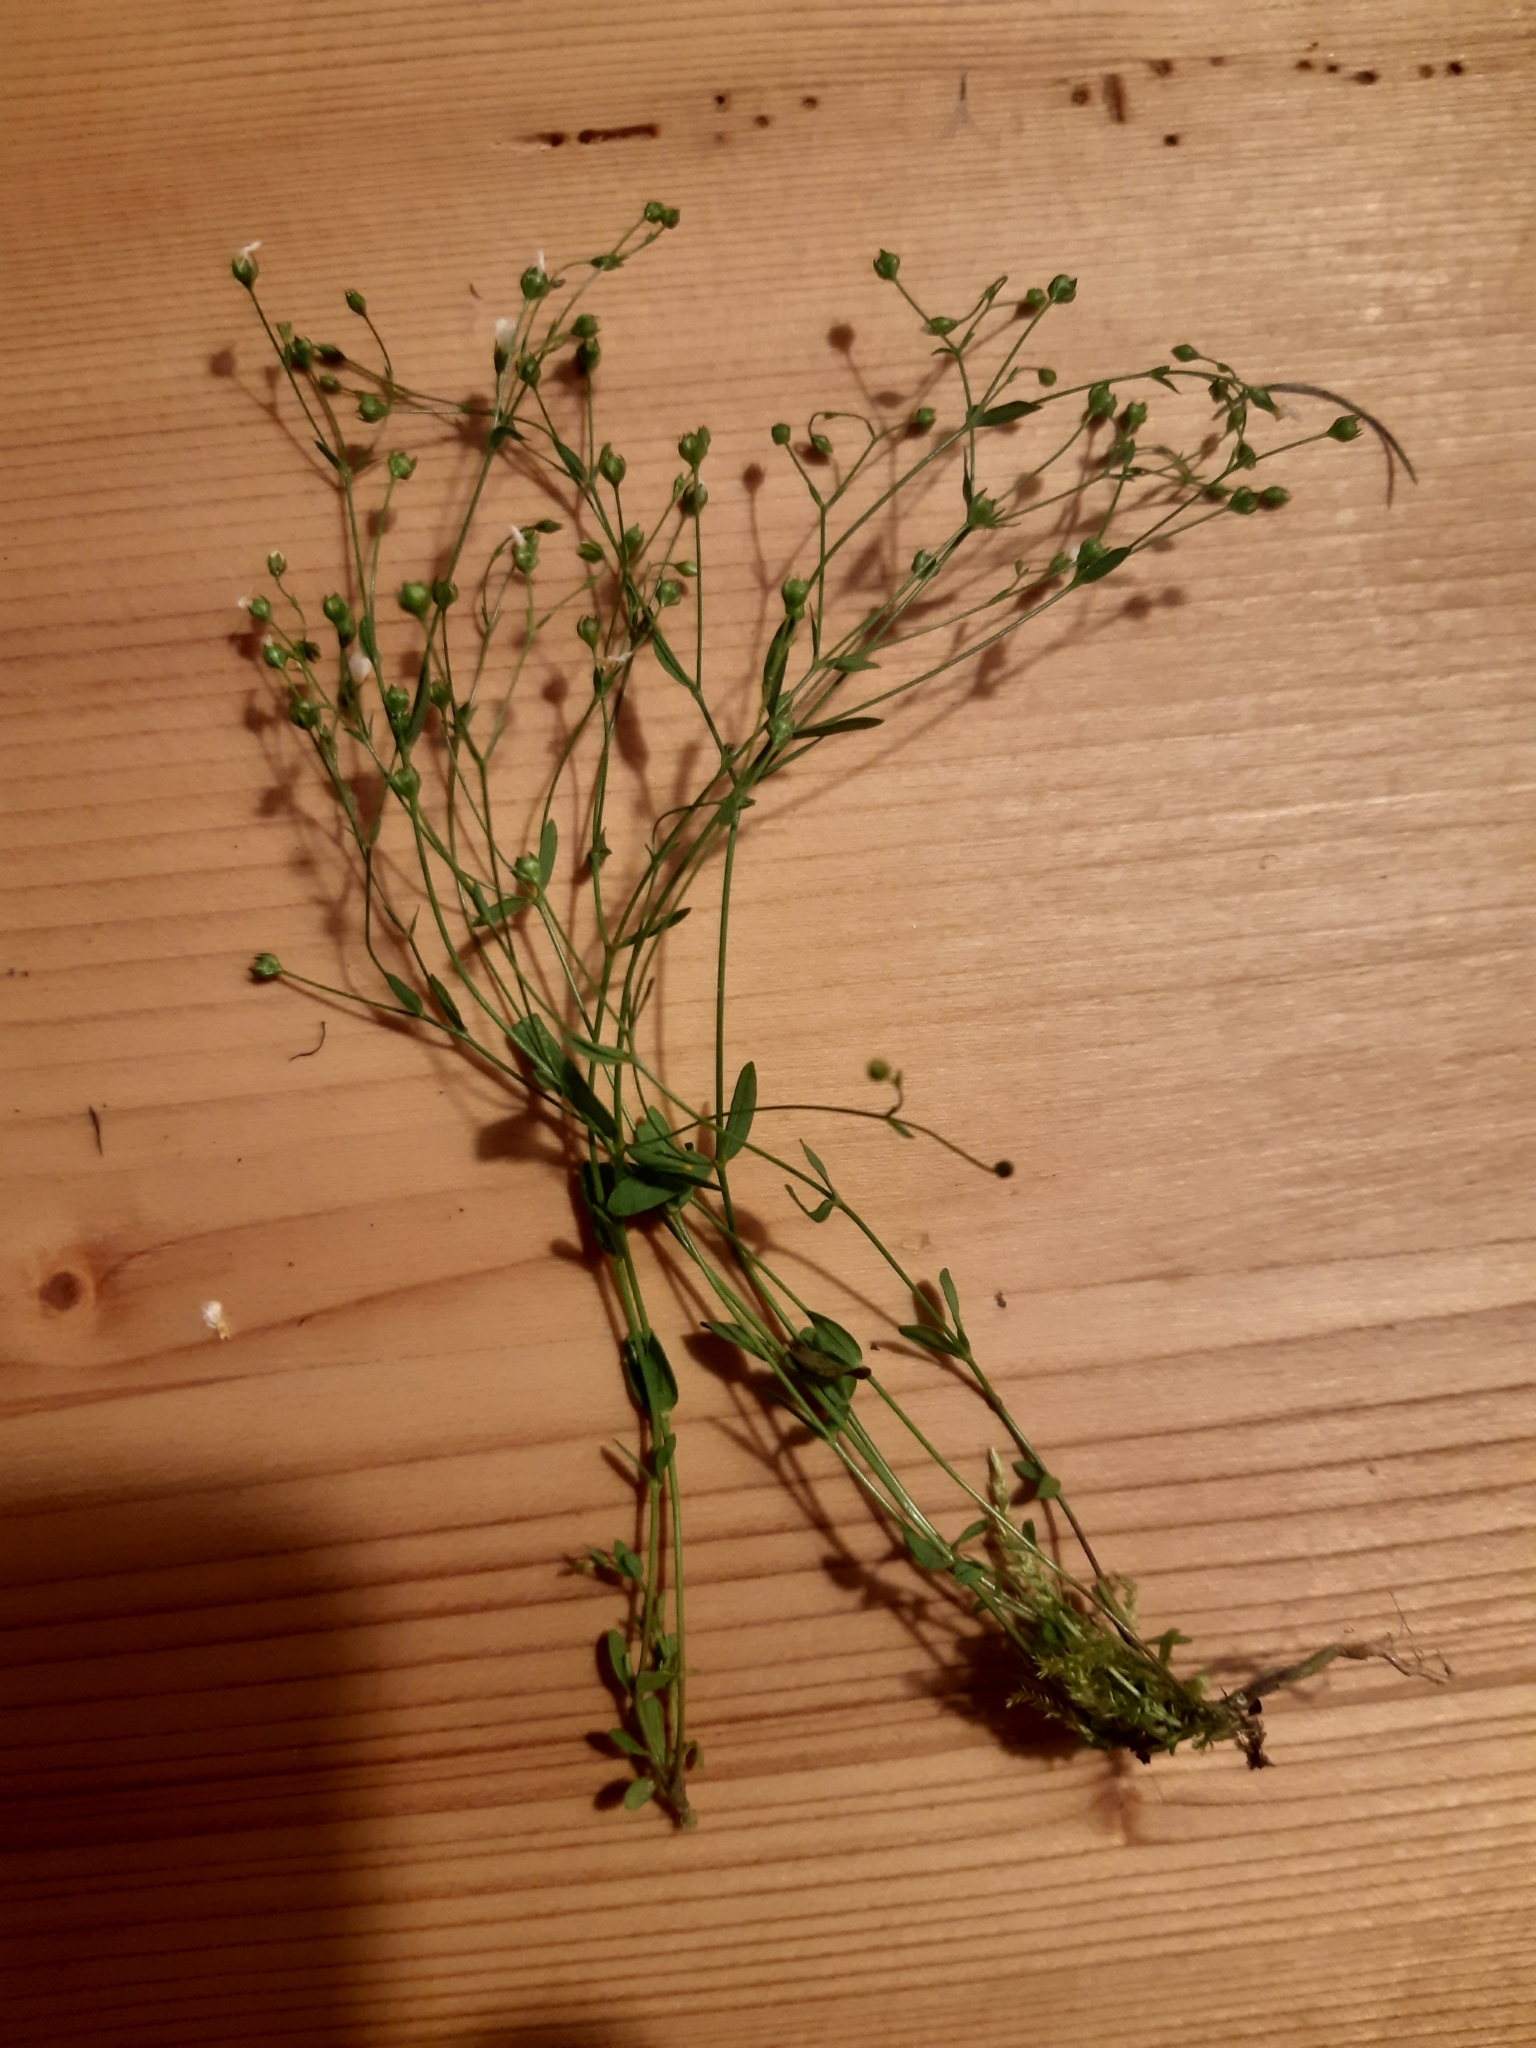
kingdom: Plantae
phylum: Tracheophyta
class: Magnoliopsida
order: Malpighiales
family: Linaceae
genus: Linum
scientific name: Linum catharticum
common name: Fairy flax
